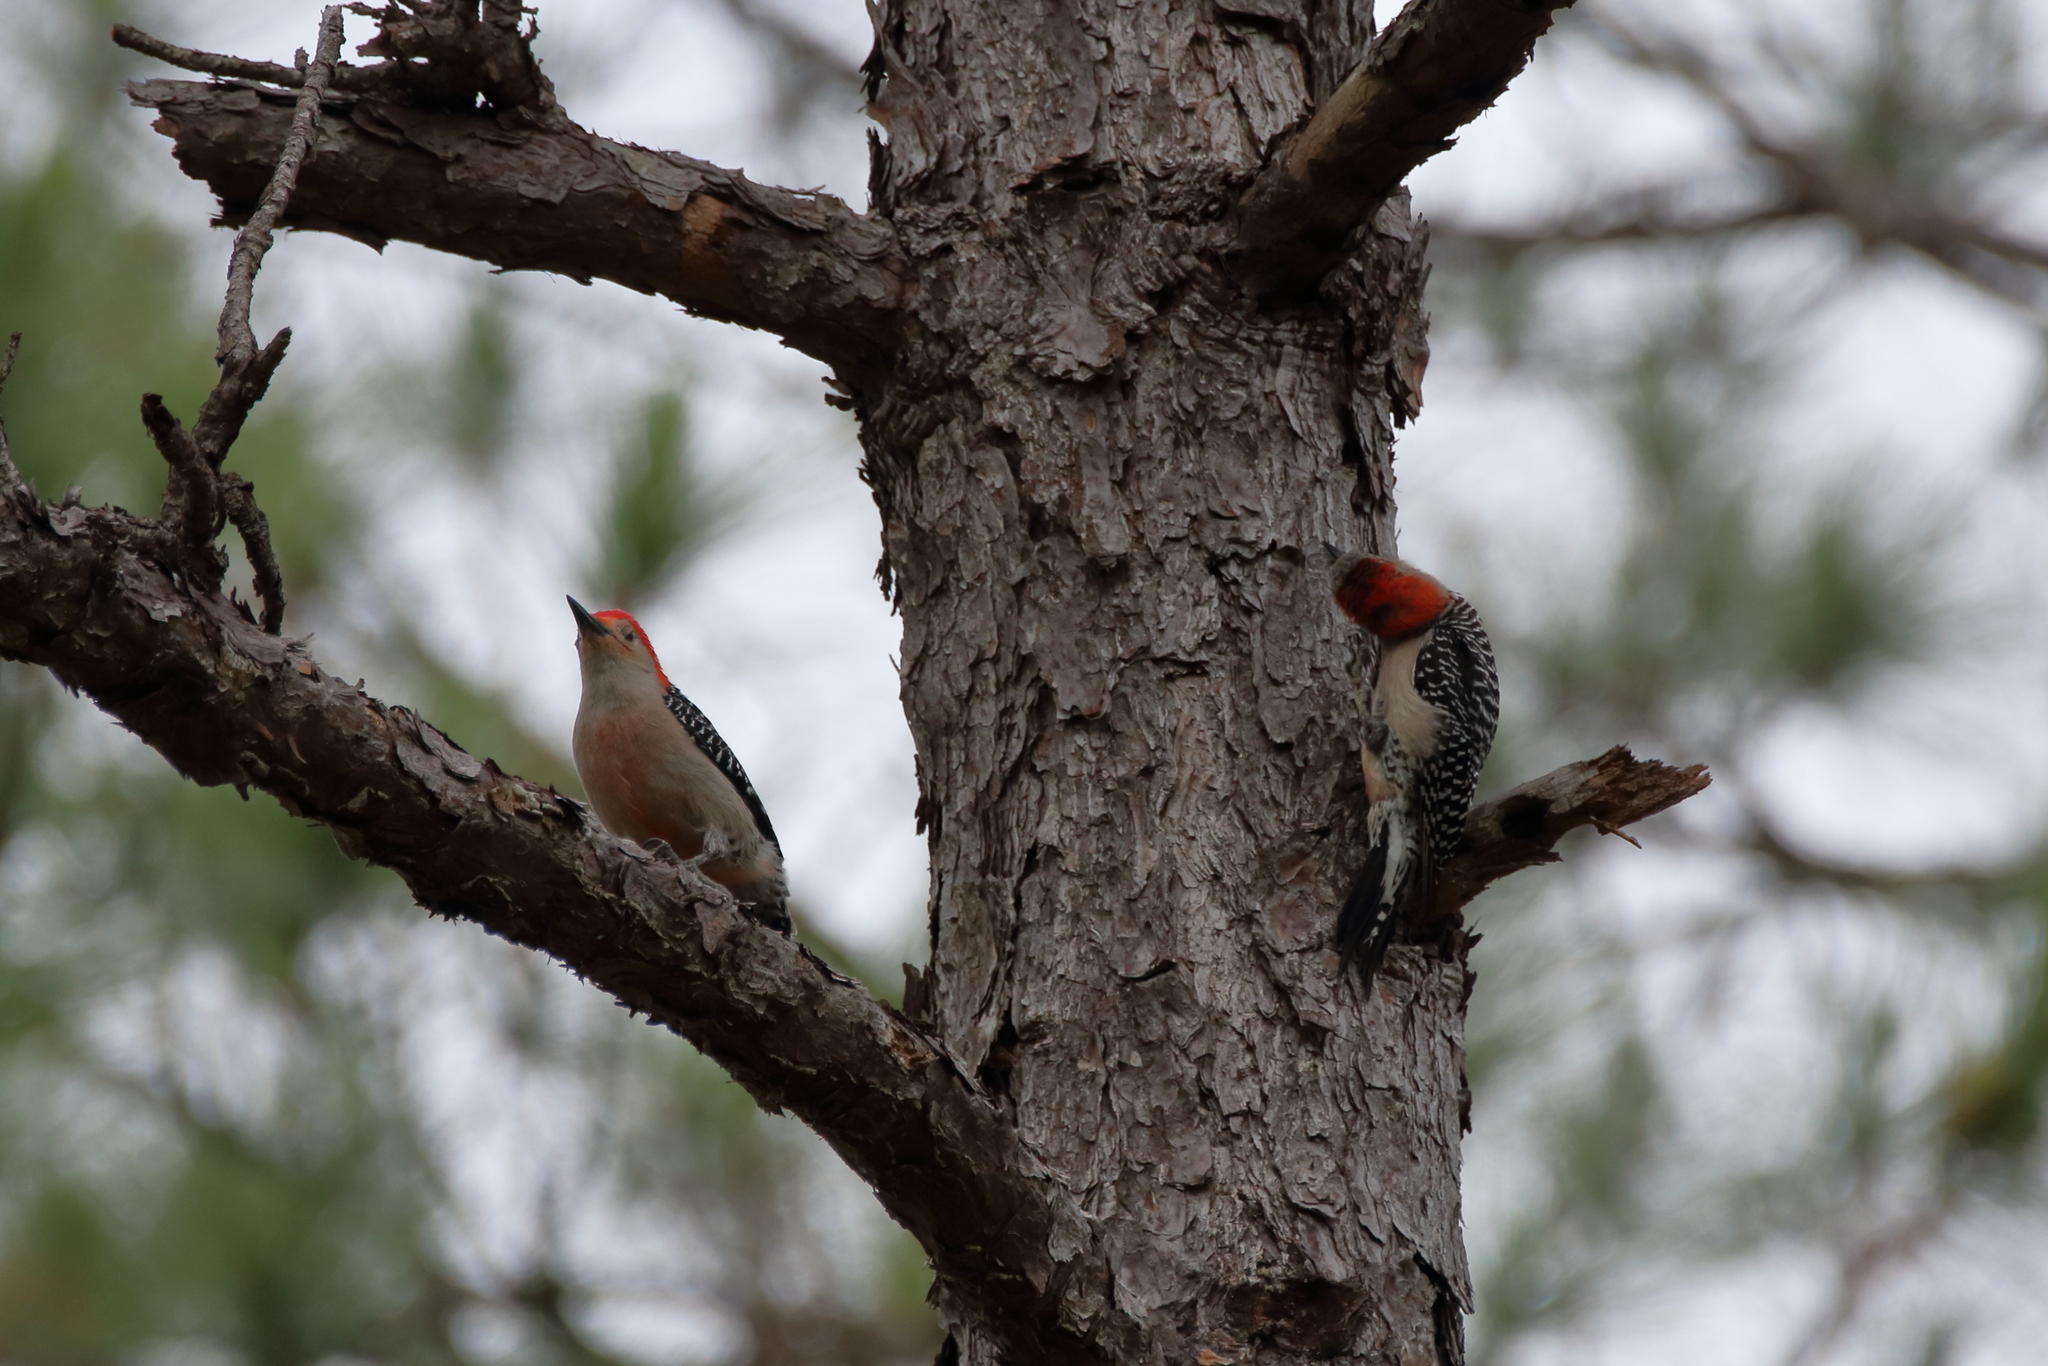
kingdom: Animalia
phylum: Chordata
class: Aves
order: Piciformes
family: Picidae
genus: Melanerpes
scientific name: Melanerpes carolinus
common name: Red-bellied woodpecker
